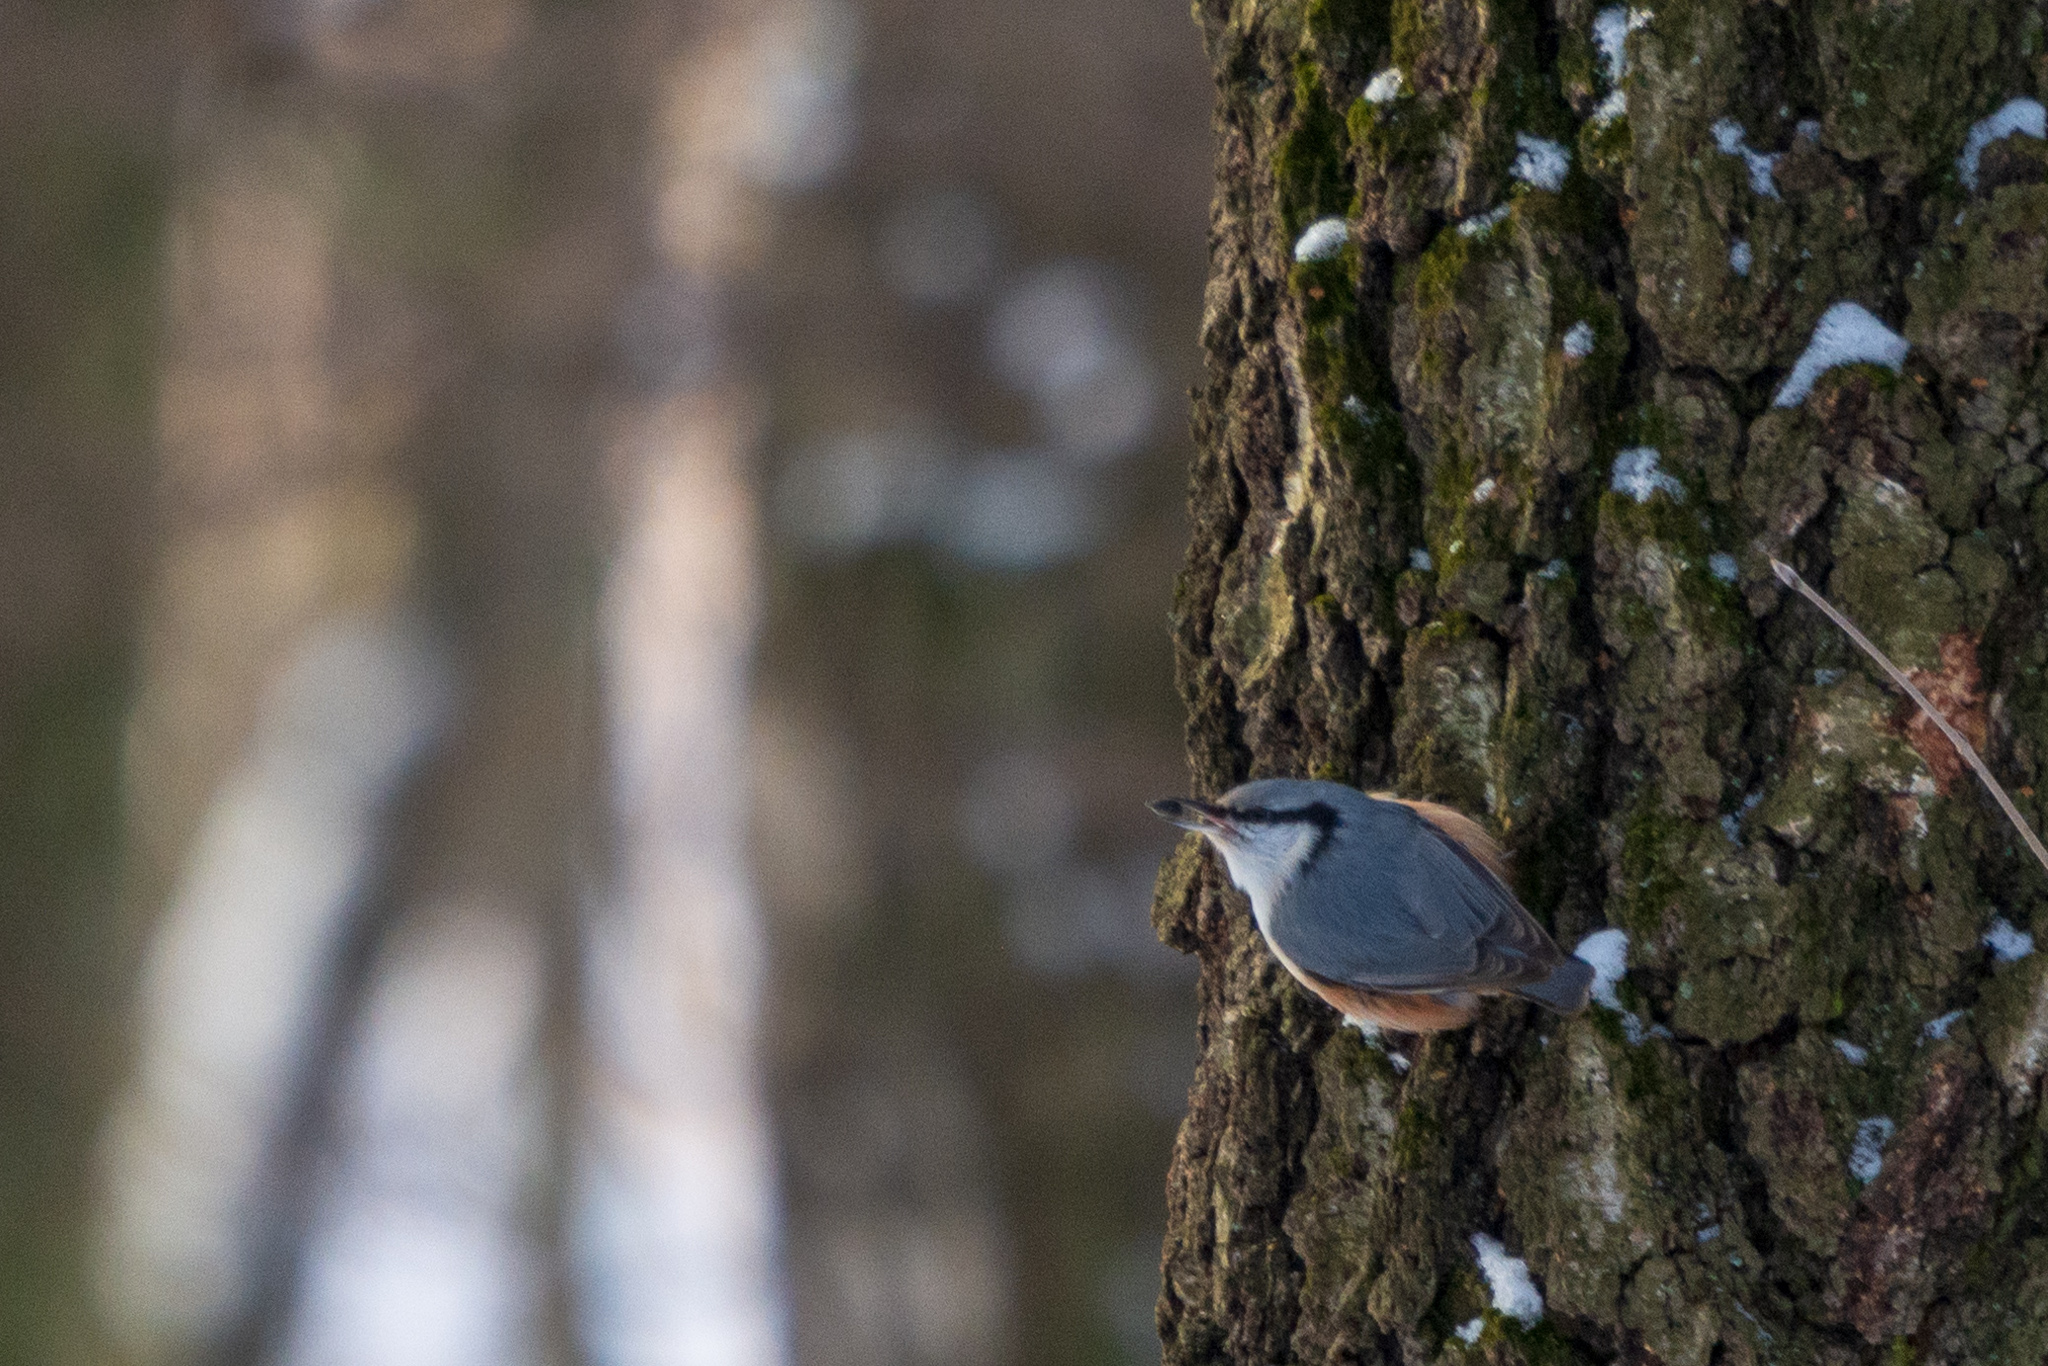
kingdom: Animalia
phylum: Chordata
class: Aves
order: Passeriformes
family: Sittidae
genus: Sitta
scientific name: Sitta europaea
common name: Eurasian nuthatch
